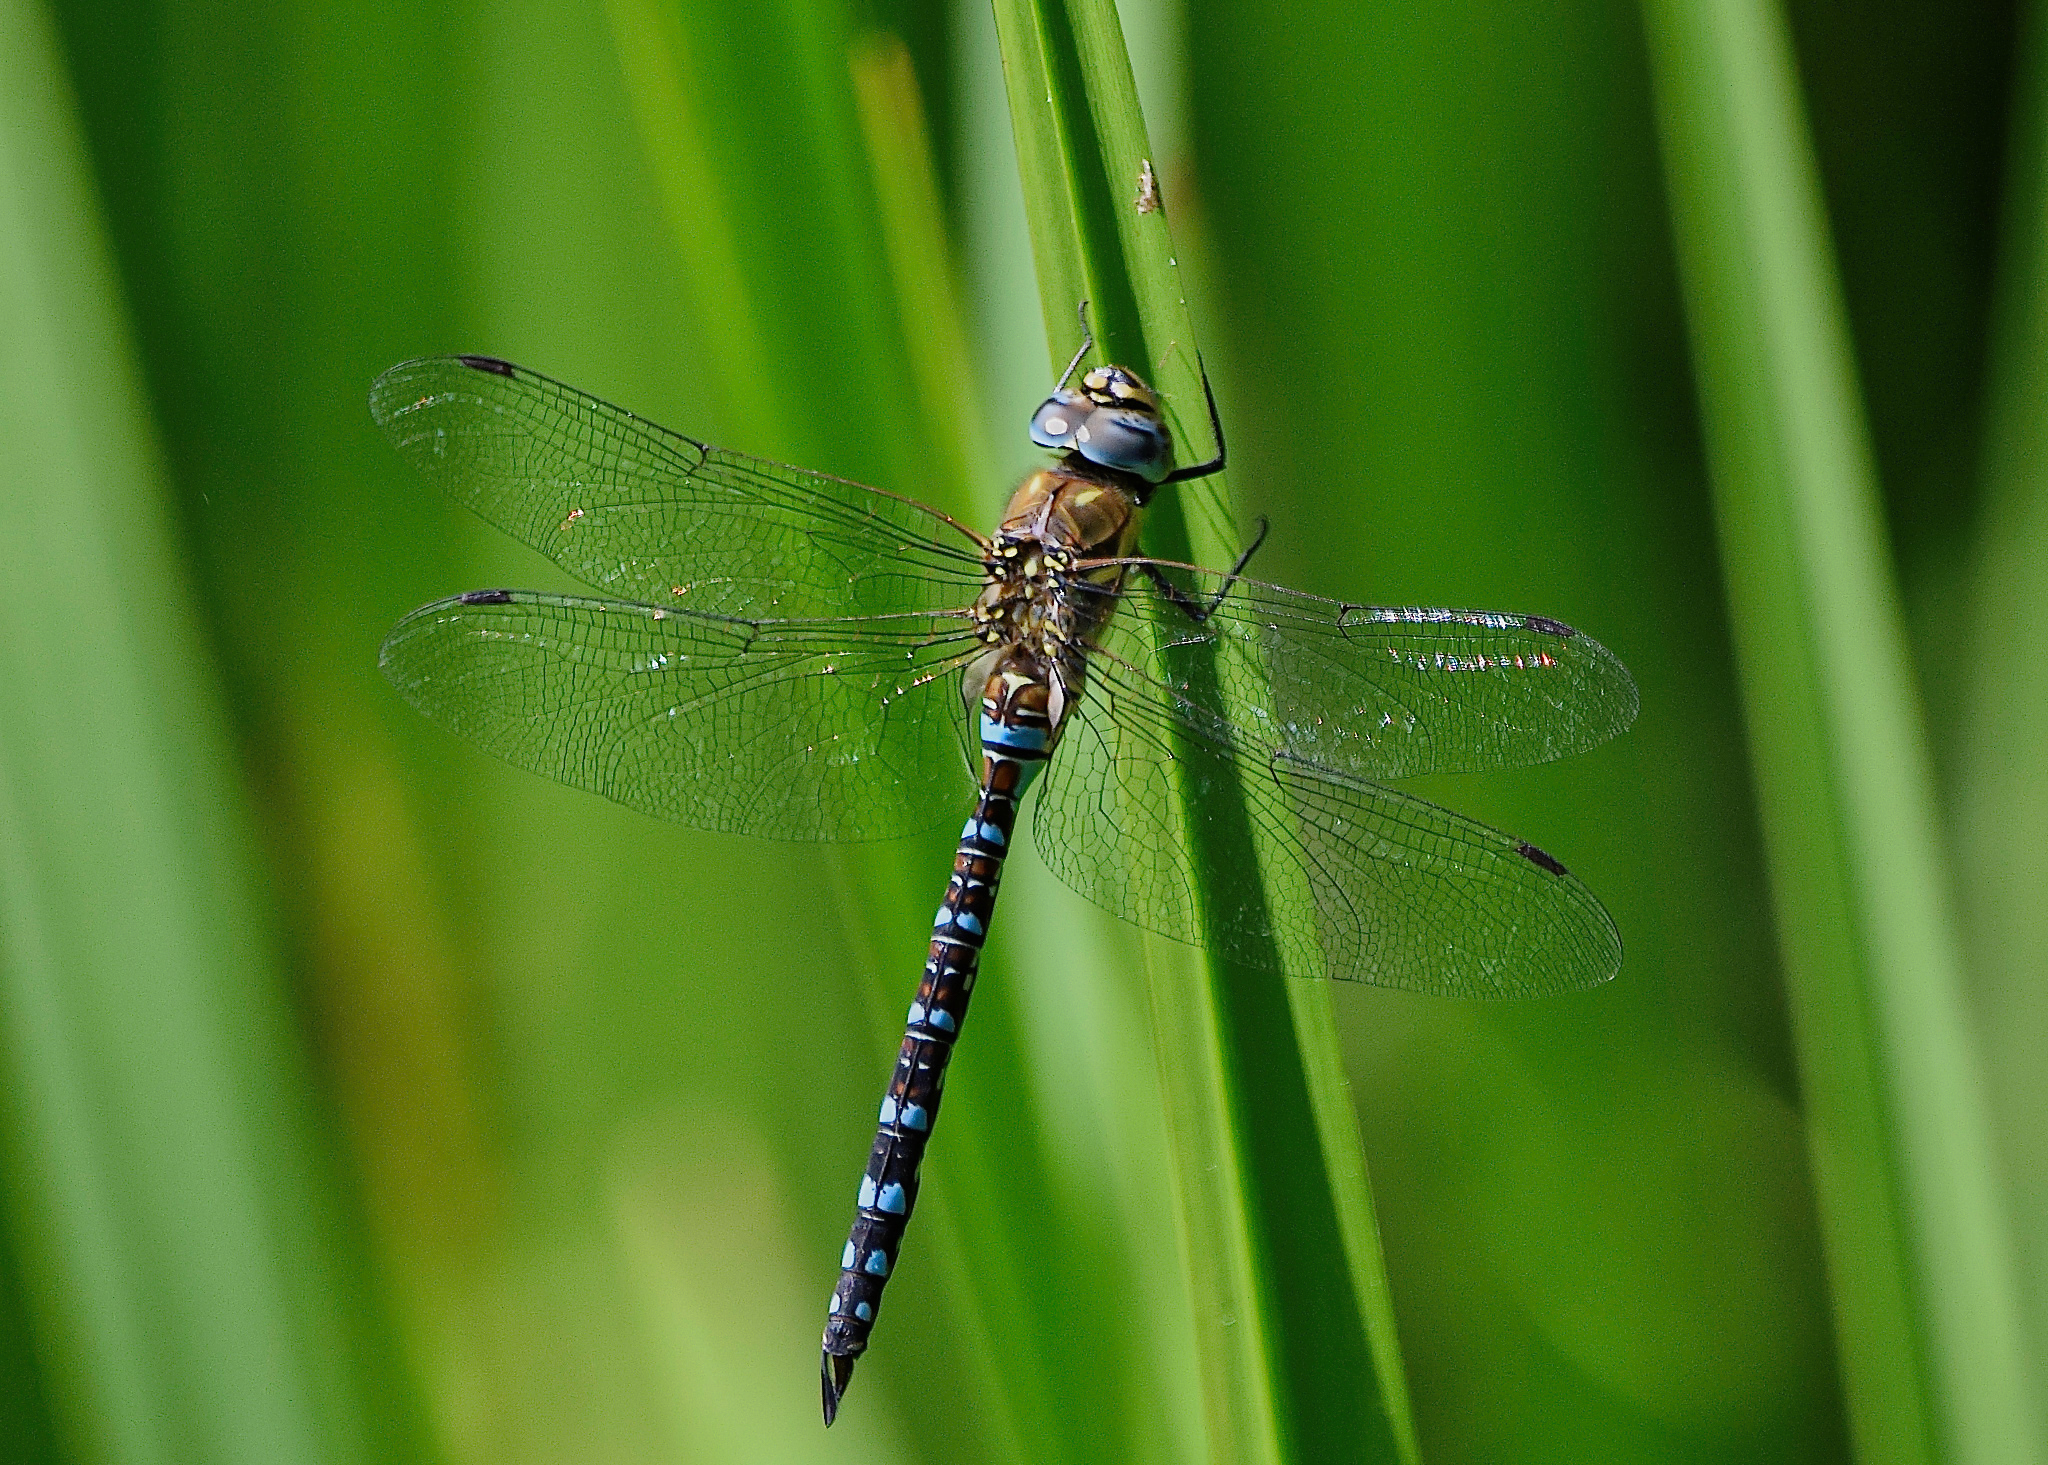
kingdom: Animalia
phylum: Arthropoda
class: Insecta
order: Odonata
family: Aeshnidae
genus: Aeshna
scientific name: Aeshna mixta
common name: Migrant hawker
